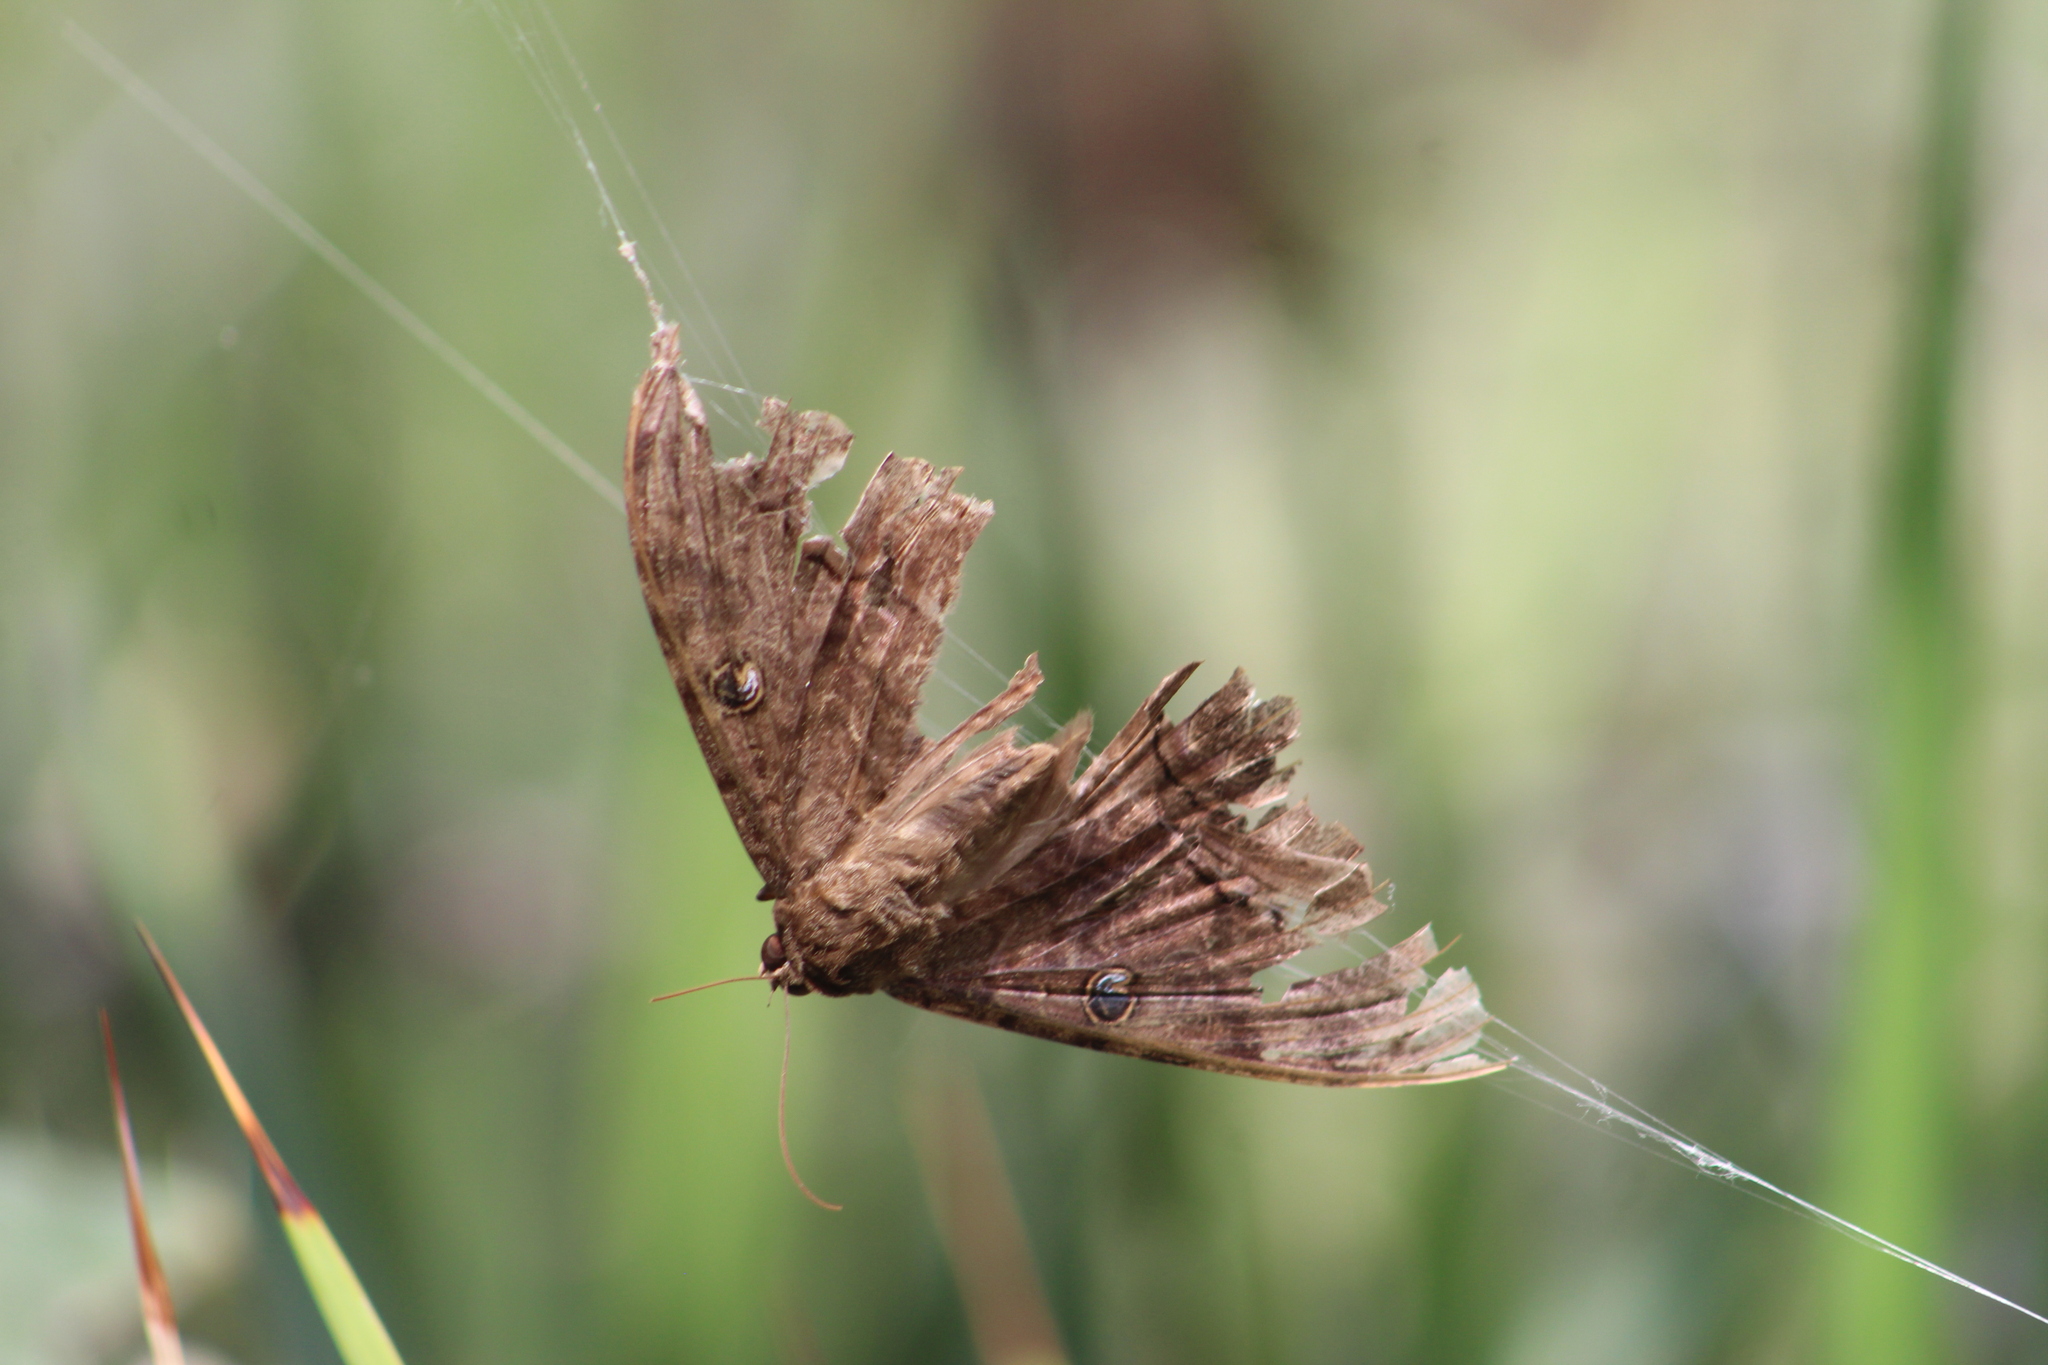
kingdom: Animalia
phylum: Arthropoda
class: Insecta
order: Lepidoptera
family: Erebidae
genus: Ascalapha
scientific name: Ascalapha odorata
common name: Black witch
